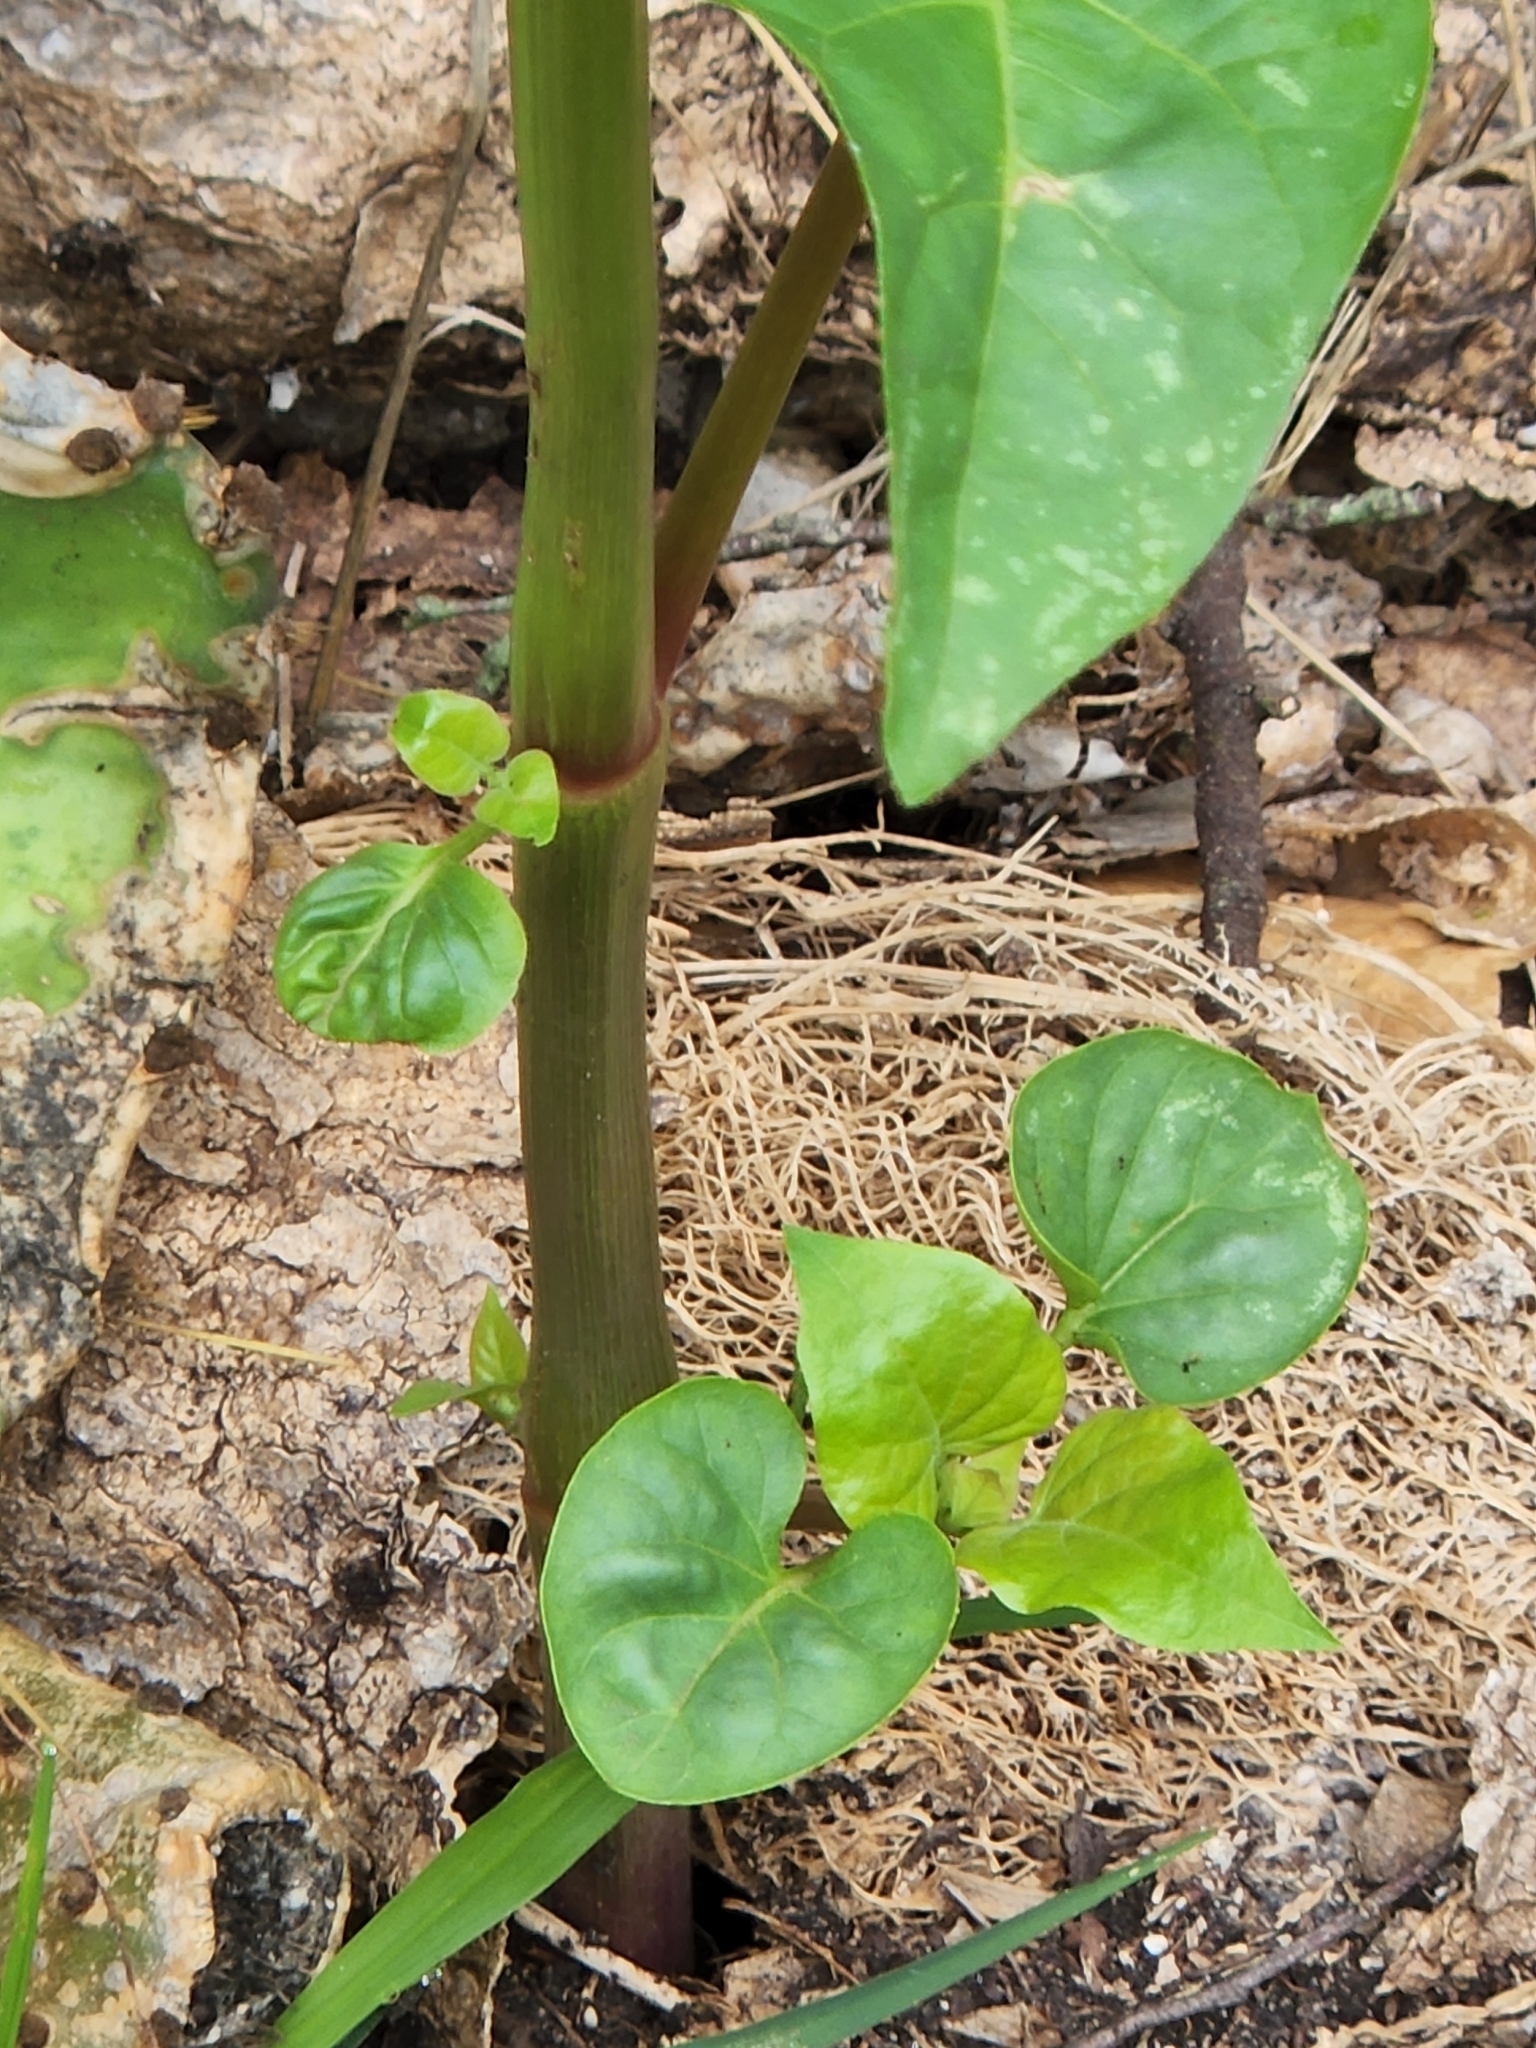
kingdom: Plantae
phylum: Tracheophyta
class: Magnoliopsida
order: Caryophyllales
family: Nyctaginaceae
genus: Mirabilis
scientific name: Mirabilis jalapa
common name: Marvel-of-peru
